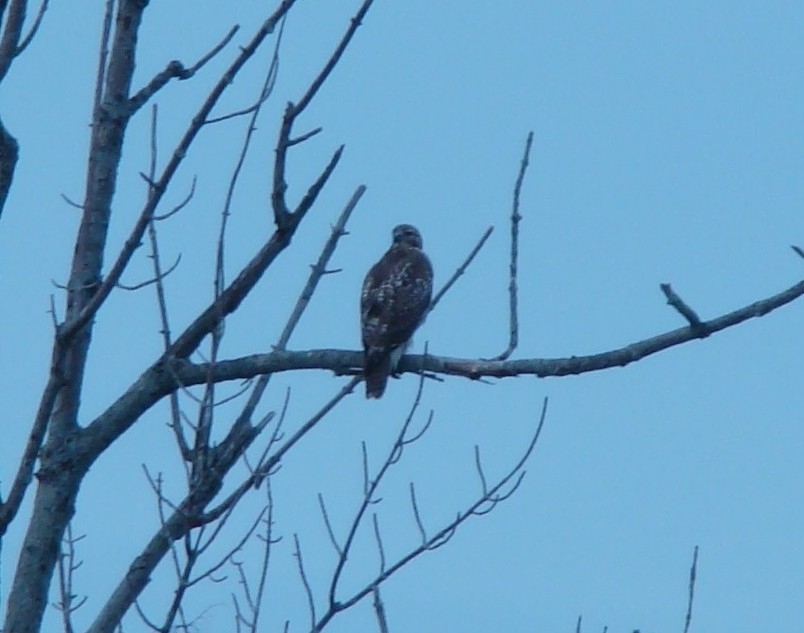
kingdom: Animalia
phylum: Chordata
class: Aves
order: Accipitriformes
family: Accipitridae
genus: Buteo
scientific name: Buteo jamaicensis
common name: Red-tailed hawk
